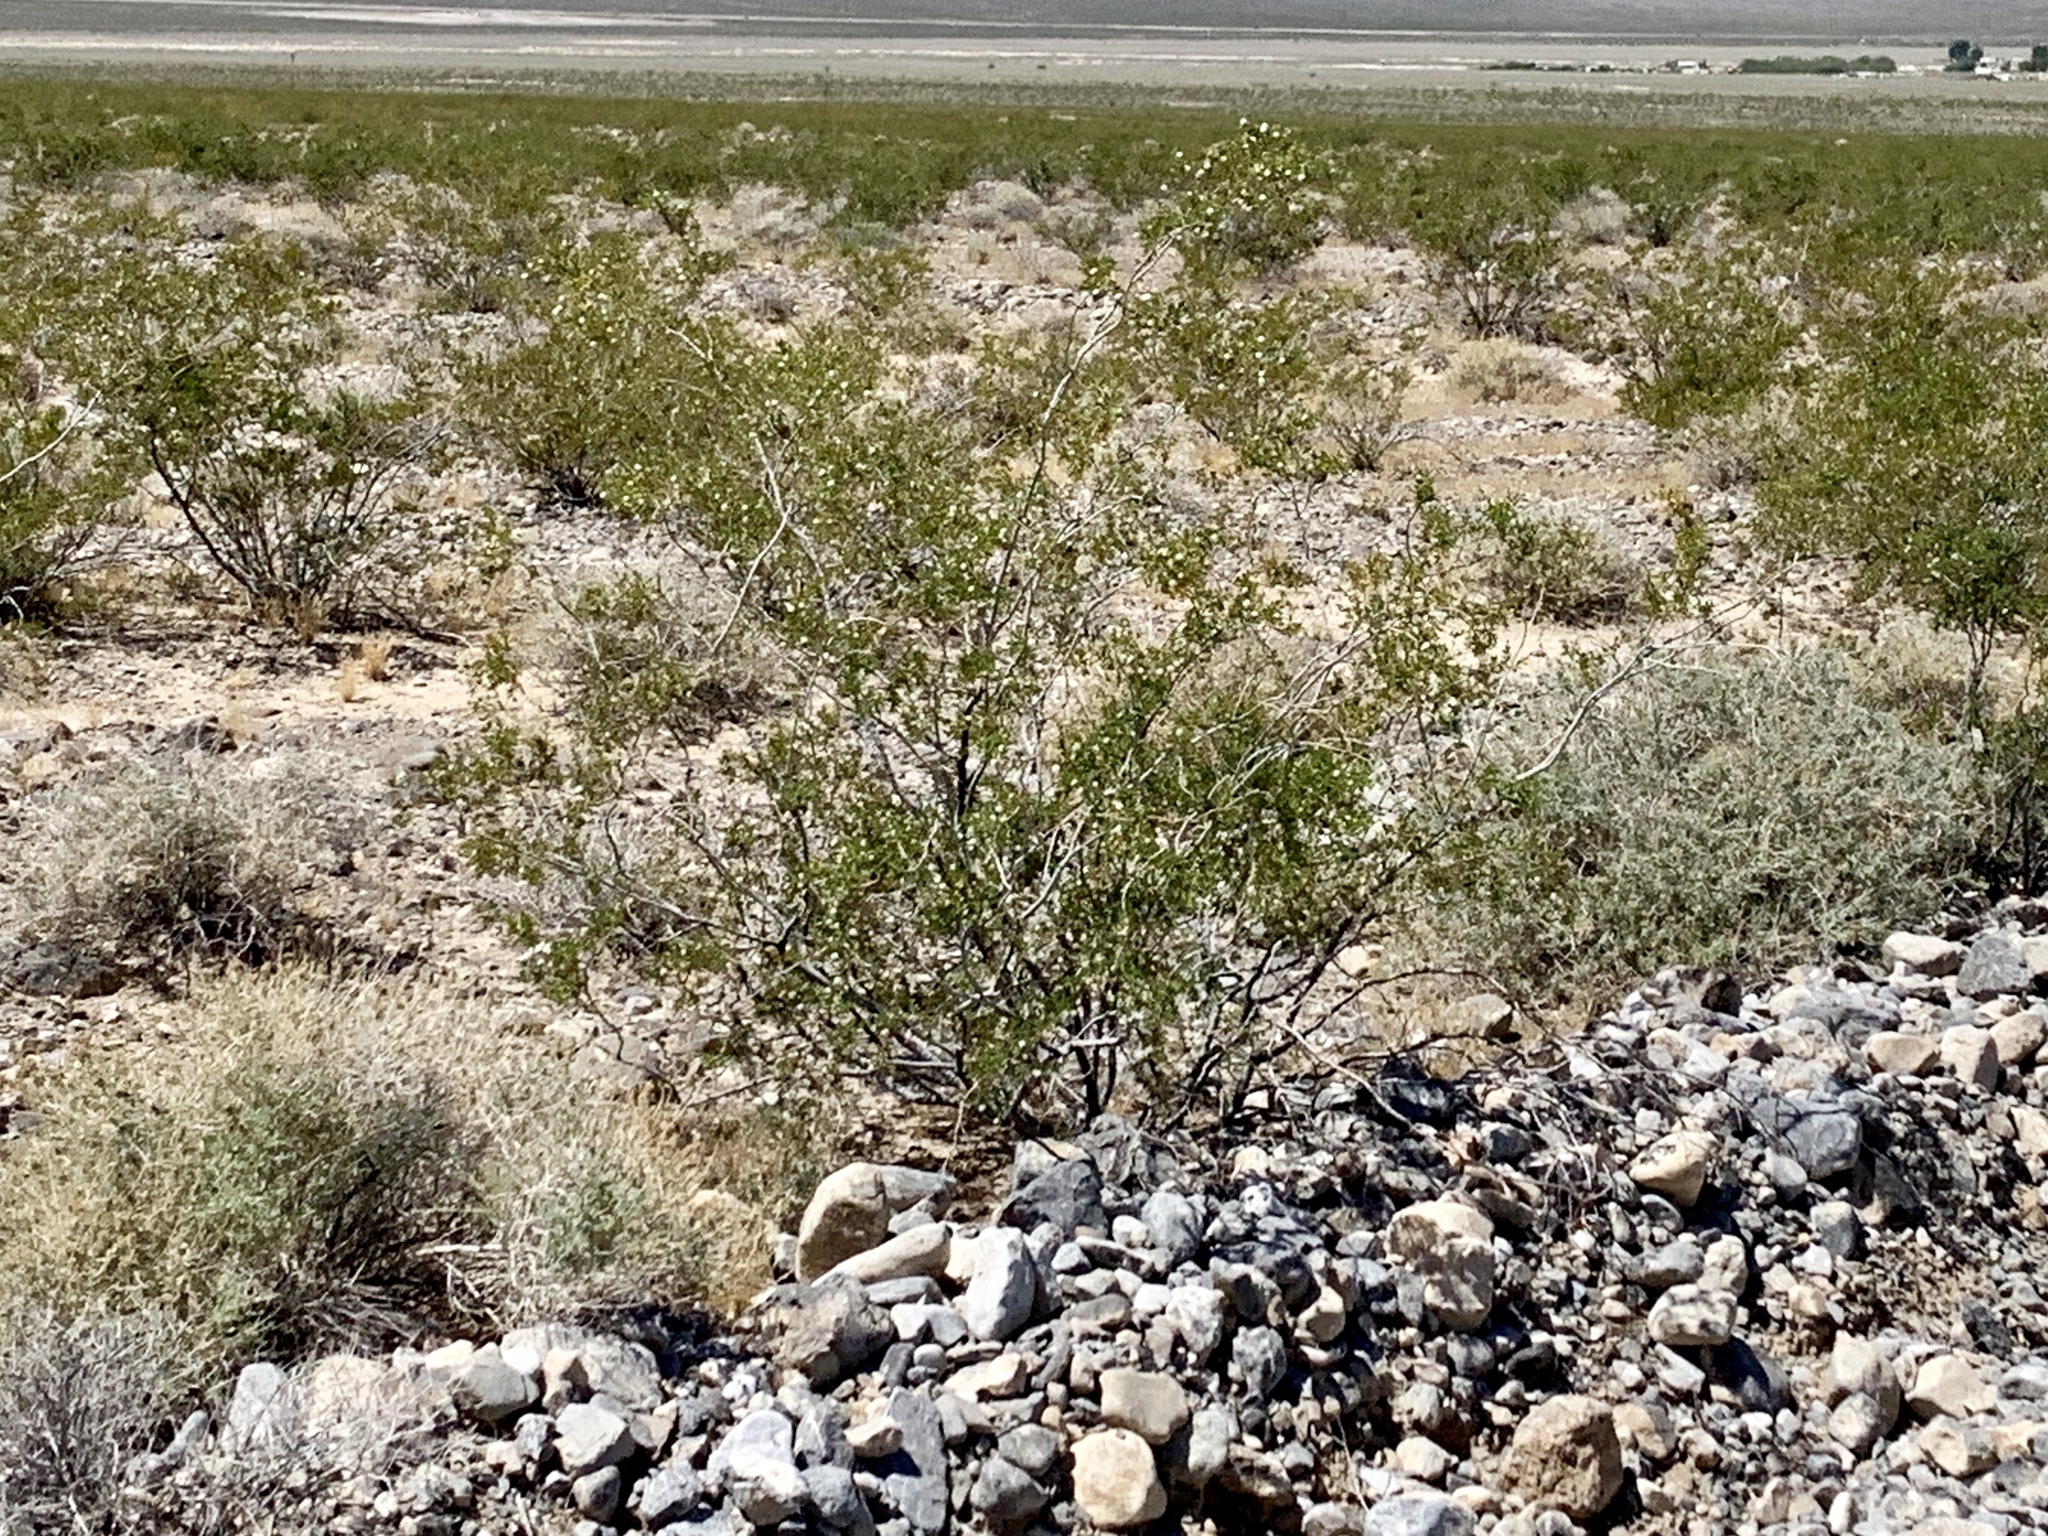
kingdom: Plantae
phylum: Tracheophyta
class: Magnoliopsida
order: Zygophyllales
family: Zygophyllaceae
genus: Larrea
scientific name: Larrea tridentata
